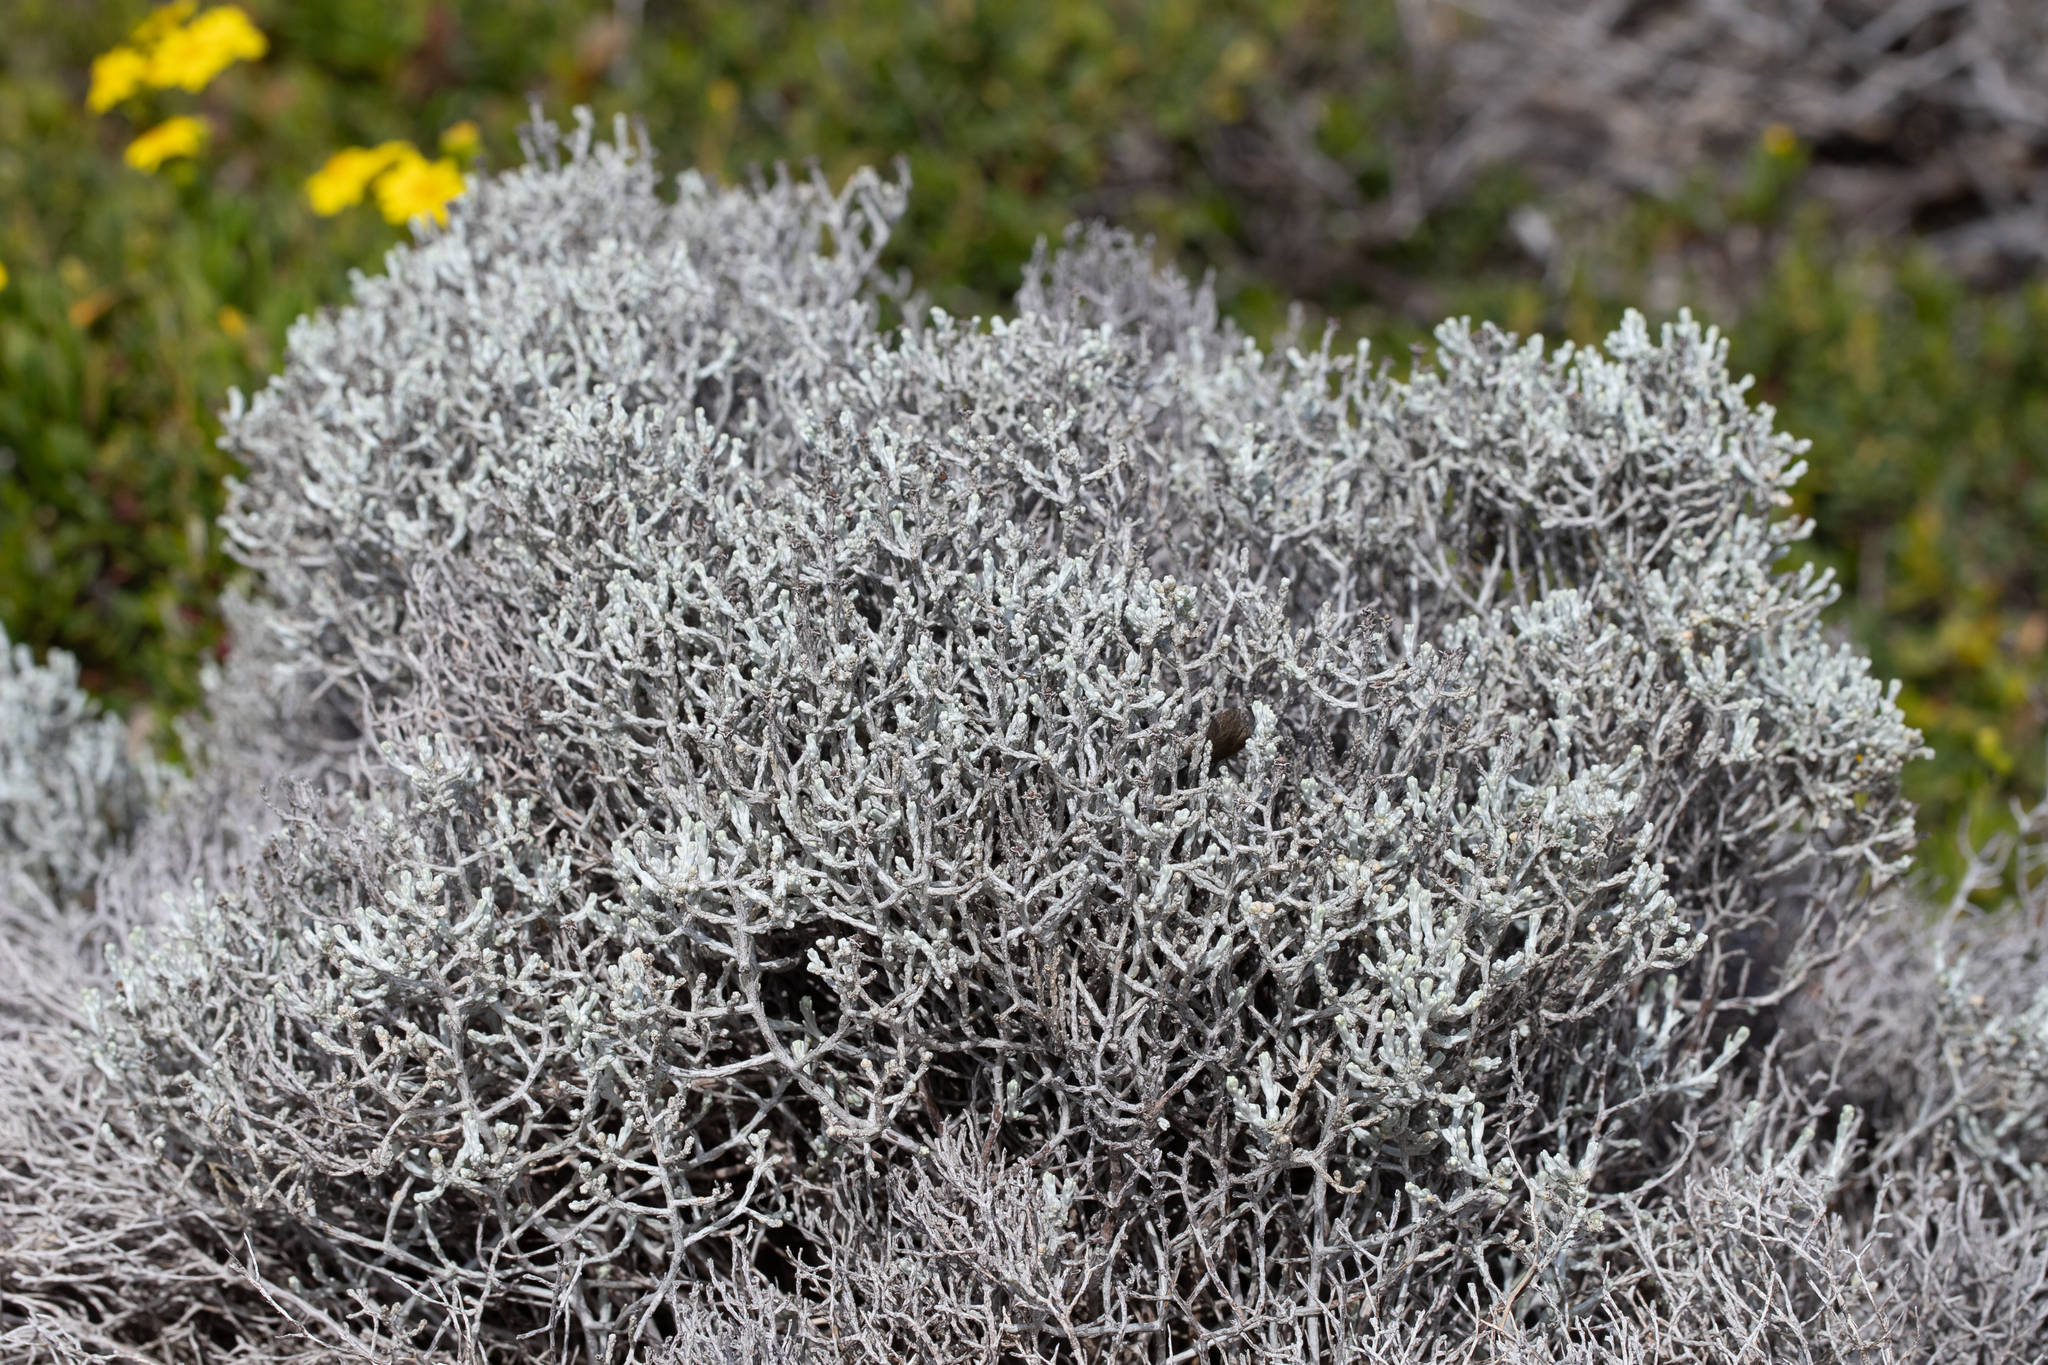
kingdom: Plantae
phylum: Tracheophyta
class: Magnoliopsida
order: Asterales
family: Asteraceae
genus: Calocephalus
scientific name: Calocephalus brownii
